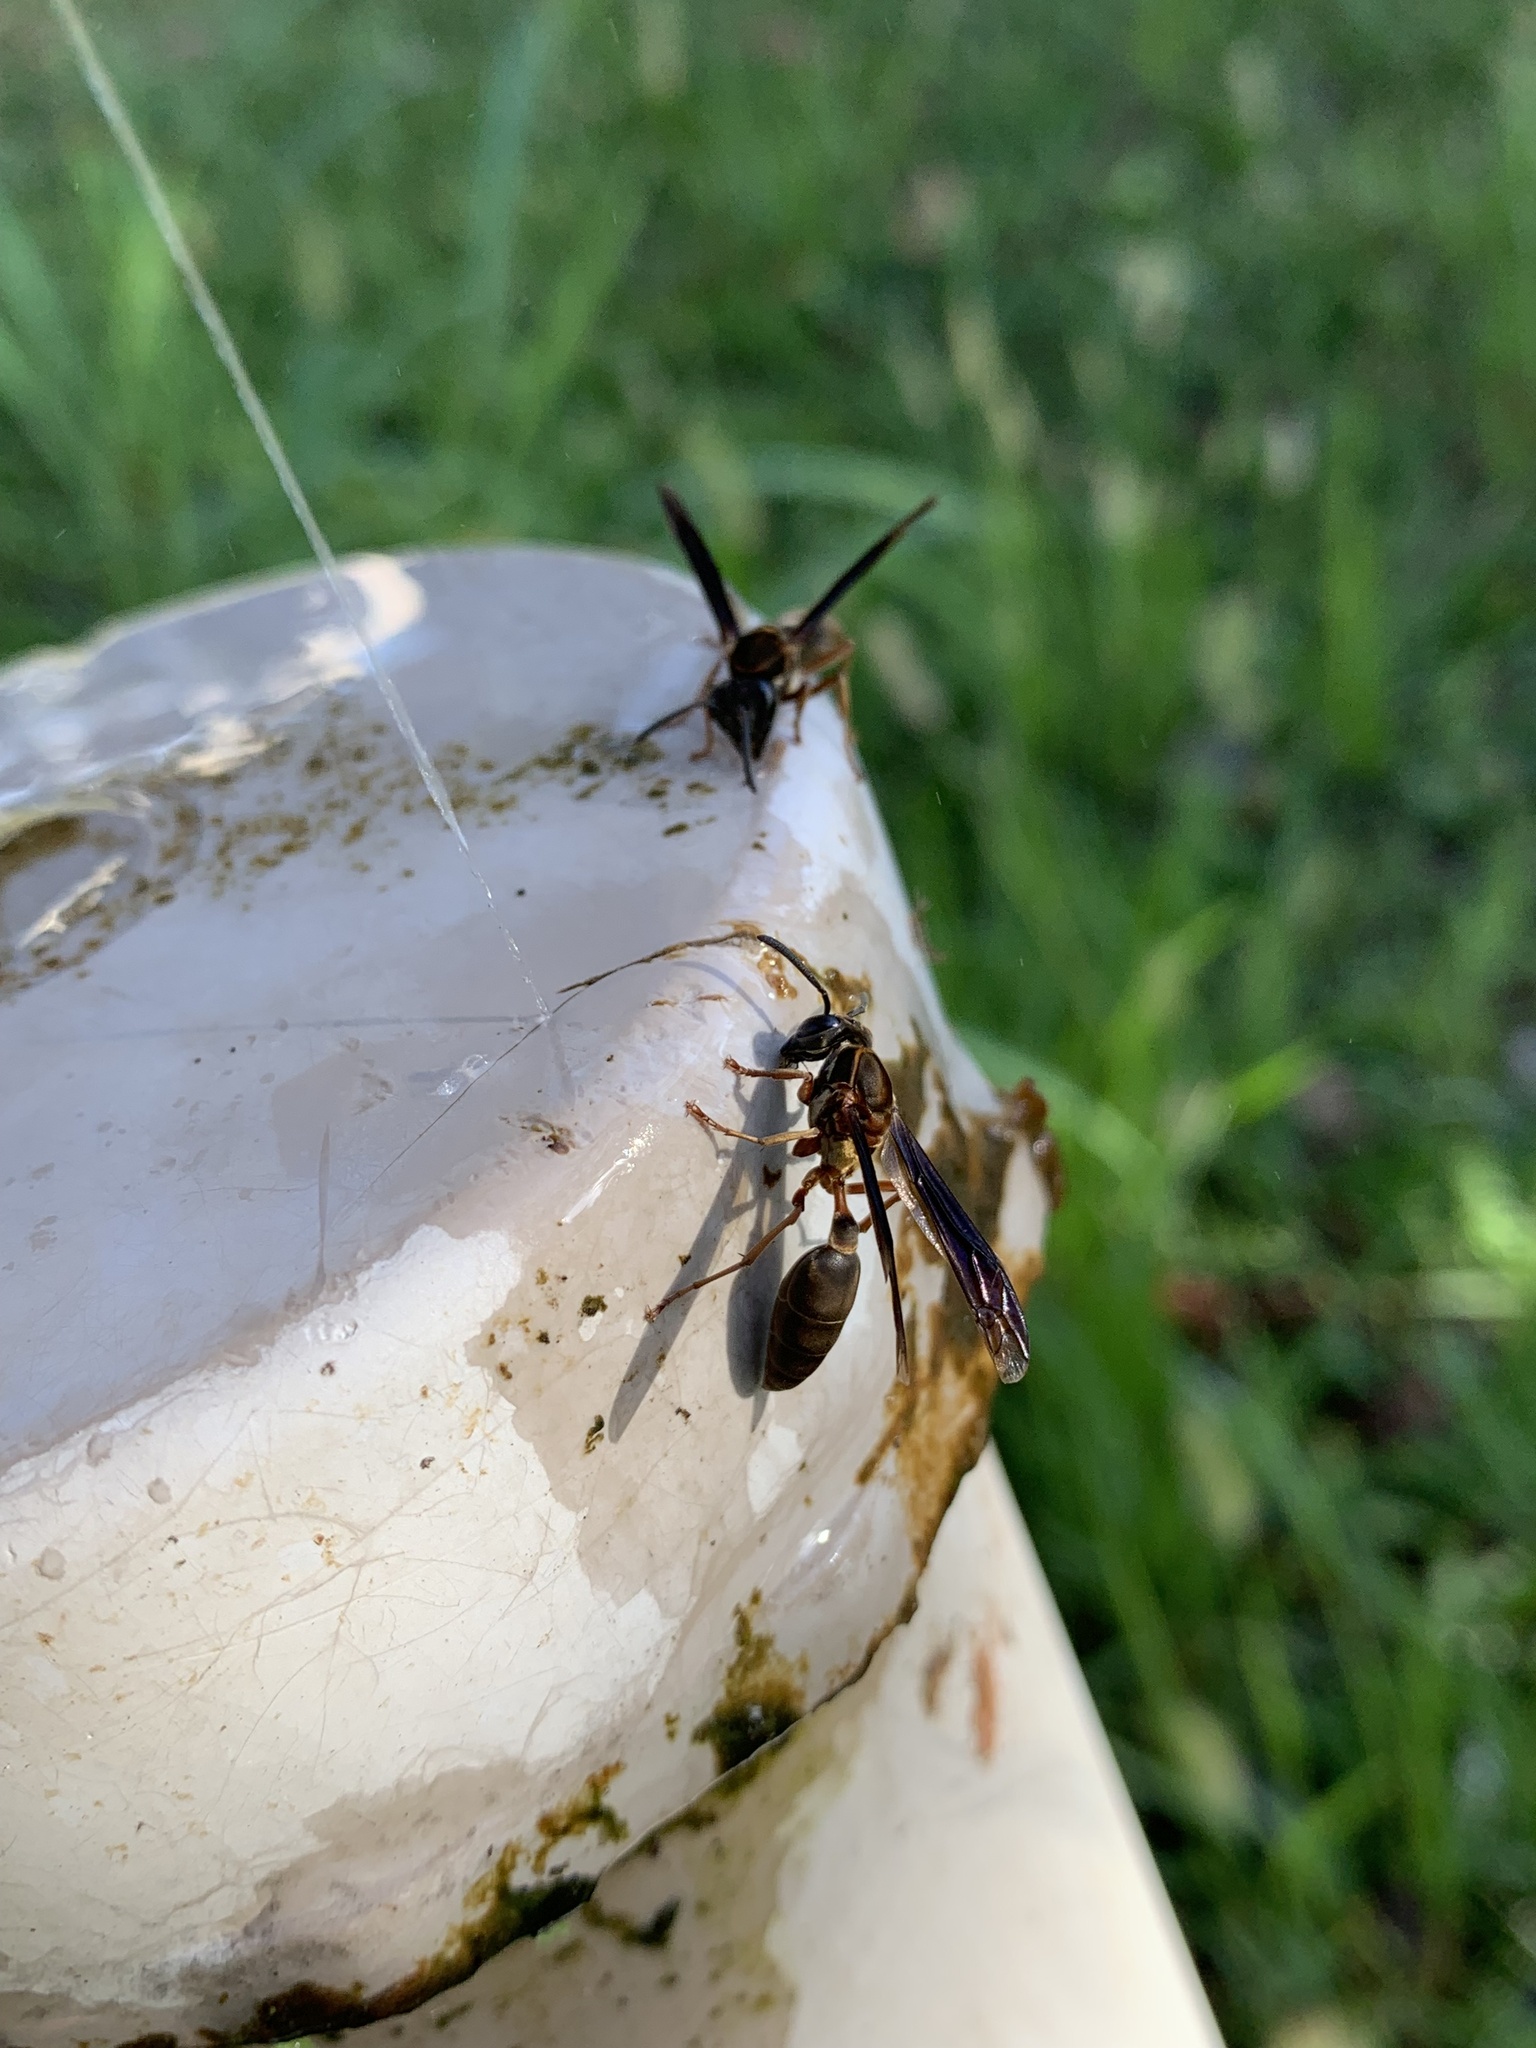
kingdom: Animalia
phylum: Arthropoda
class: Insecta
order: Hymenoptera
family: Eumenidae
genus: Polybia
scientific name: Polybia sericea
